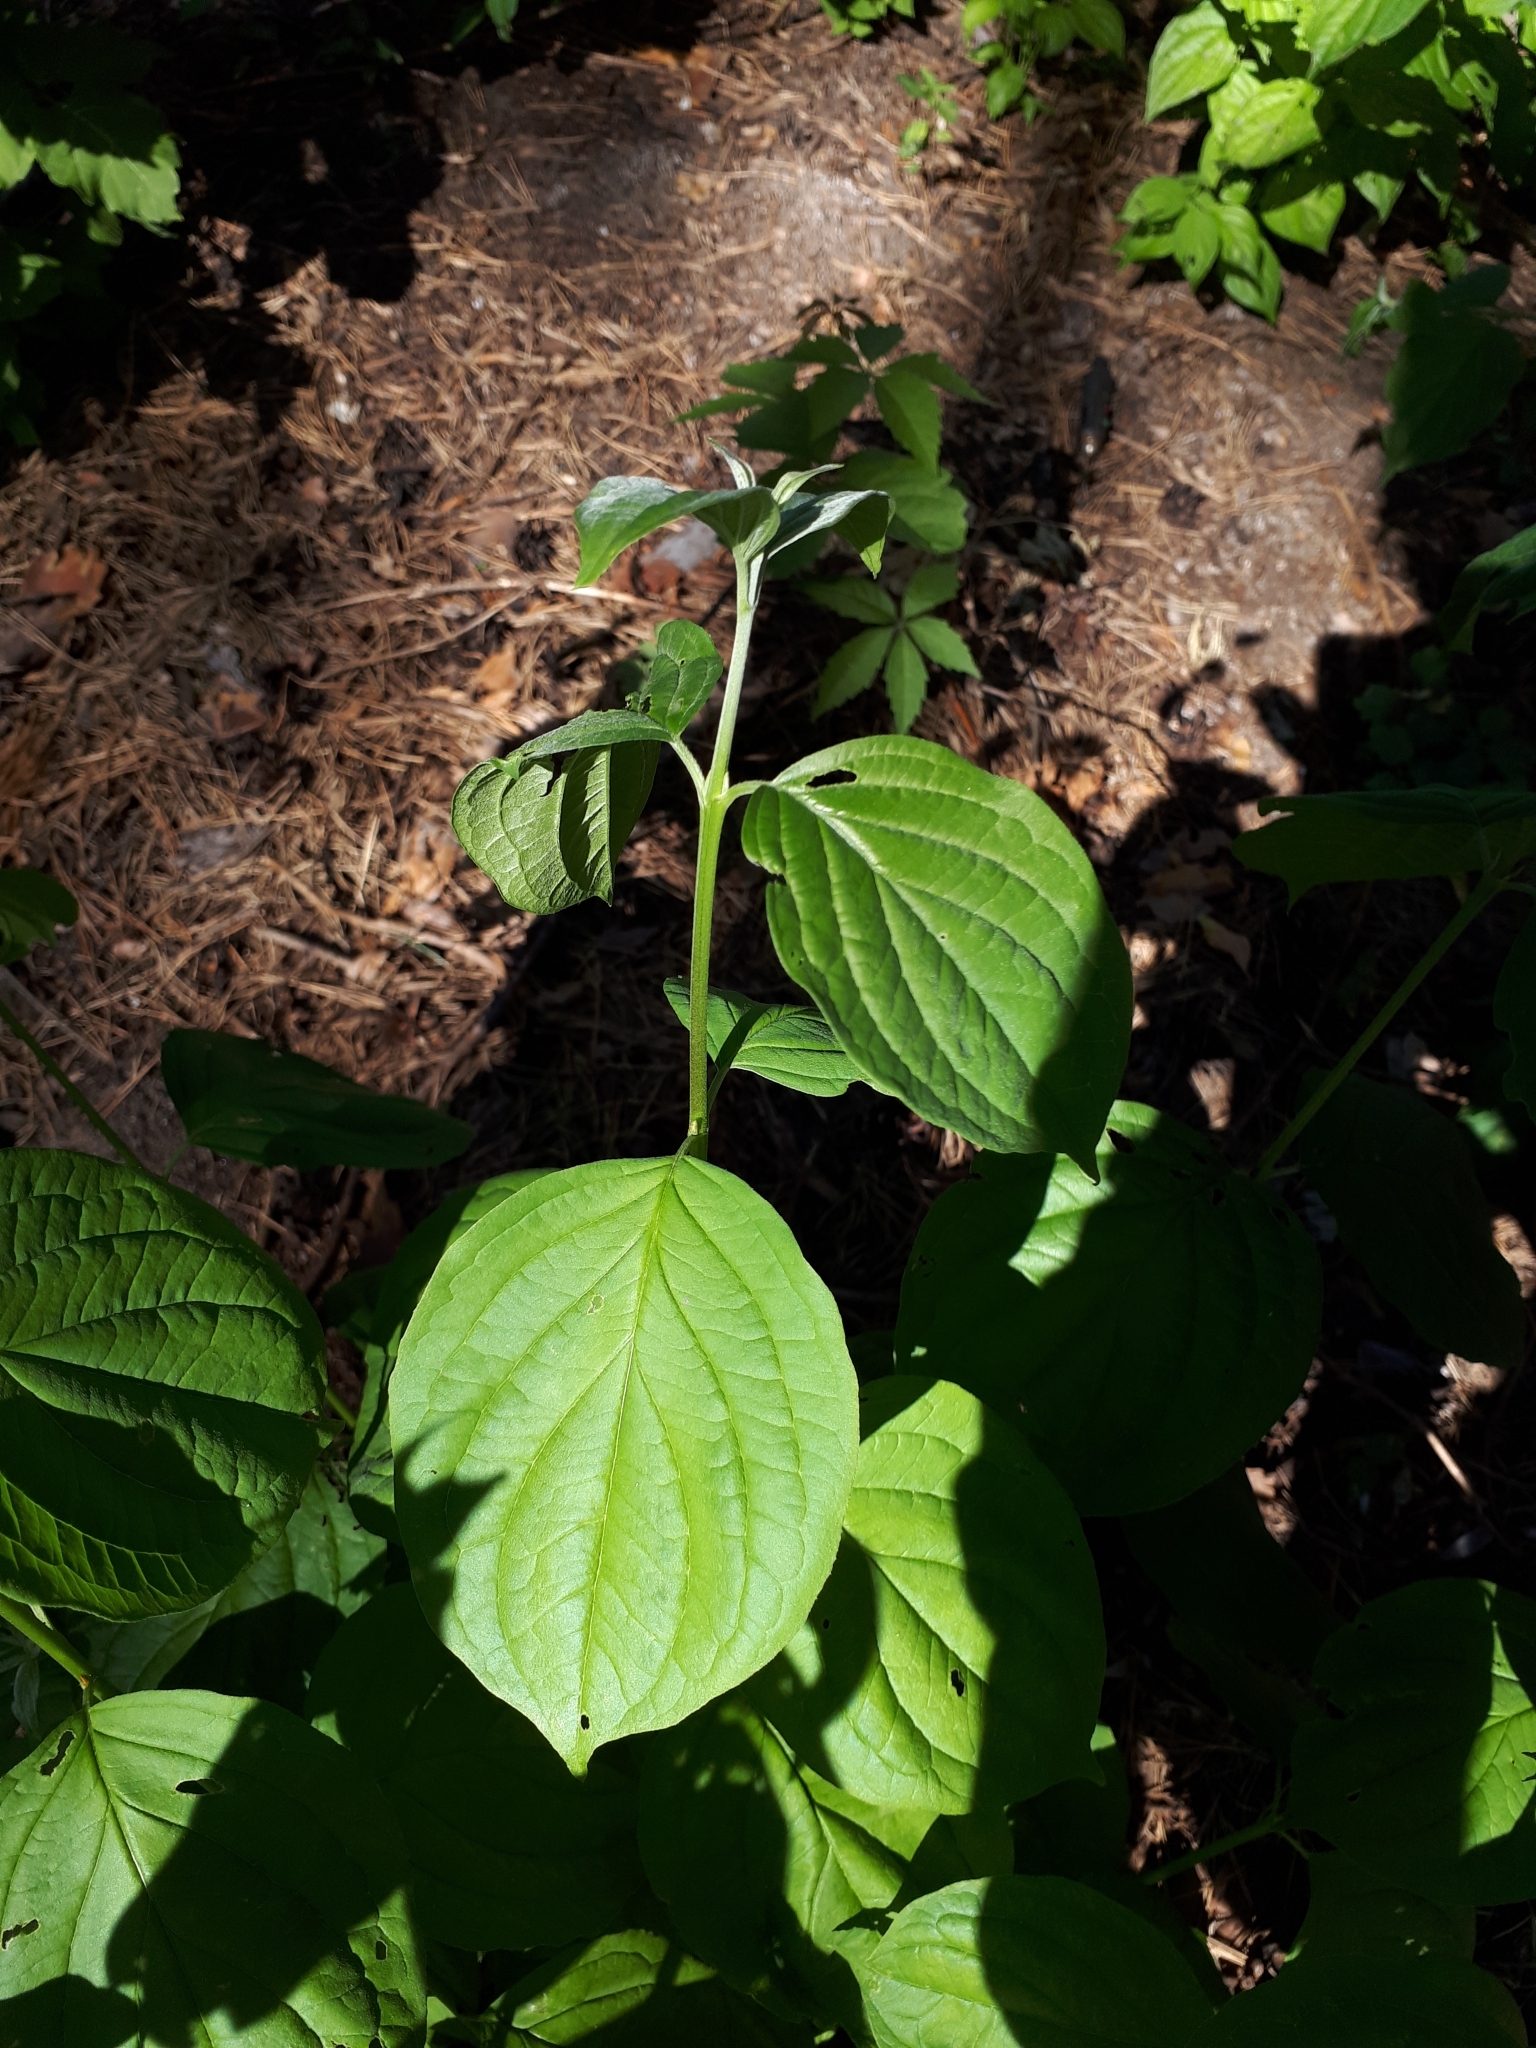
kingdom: Plantae
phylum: Tracheophyta
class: Magnoliopsida
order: Cornales
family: Cornaceae
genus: Cornus
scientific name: Cornus sanguinea
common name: Dogwood
